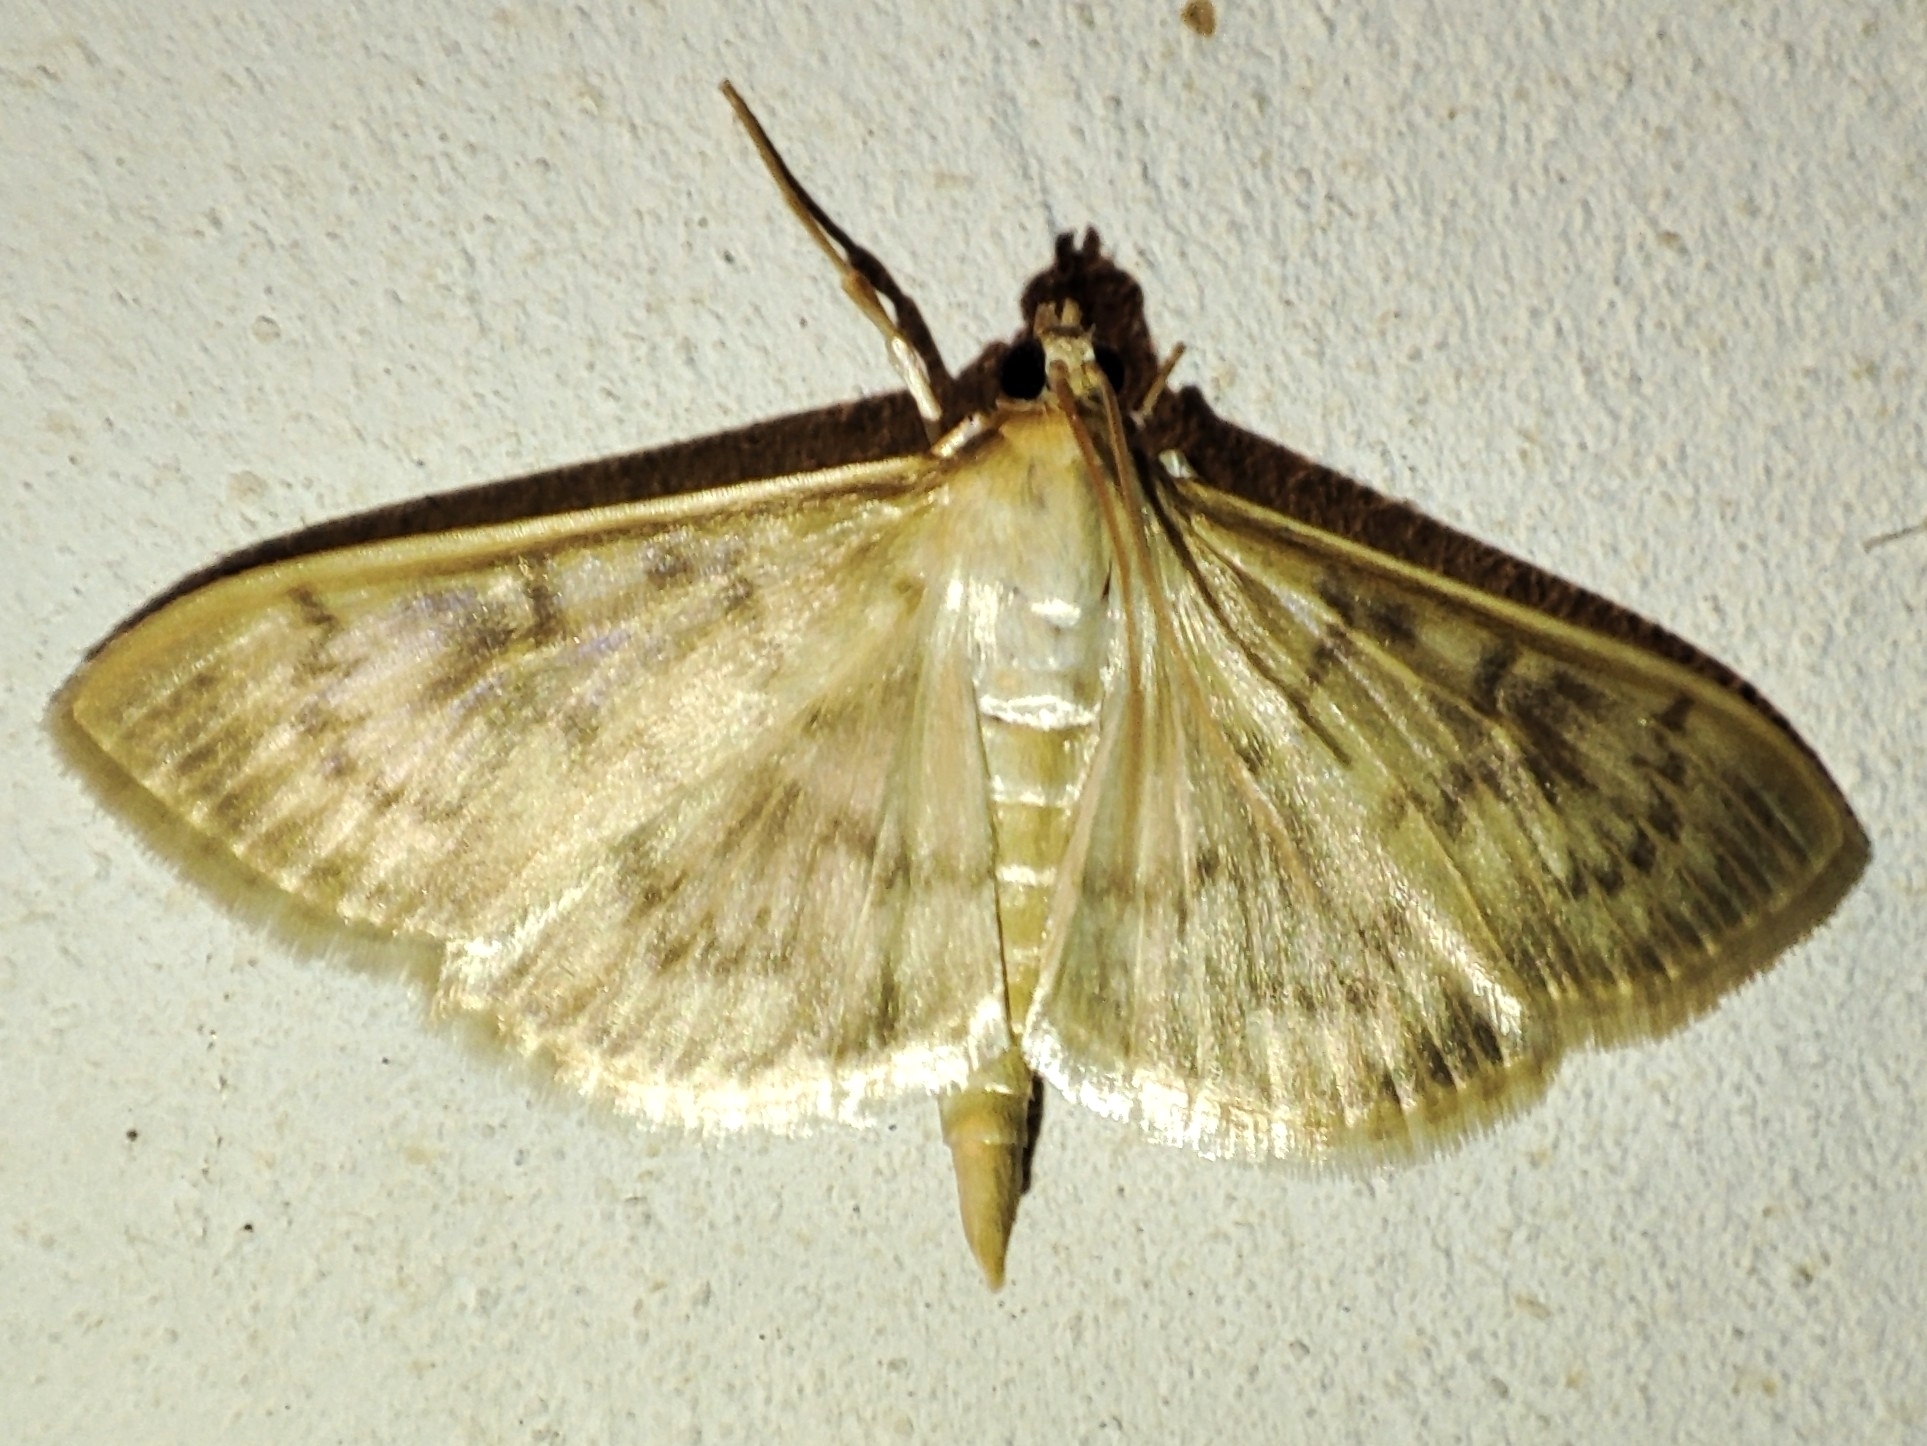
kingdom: Animalia
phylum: Arthropoda
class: Insecta
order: Lepidoptera
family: Crambidae
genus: Patania
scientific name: Patania ruralis
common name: Mother of pearl
